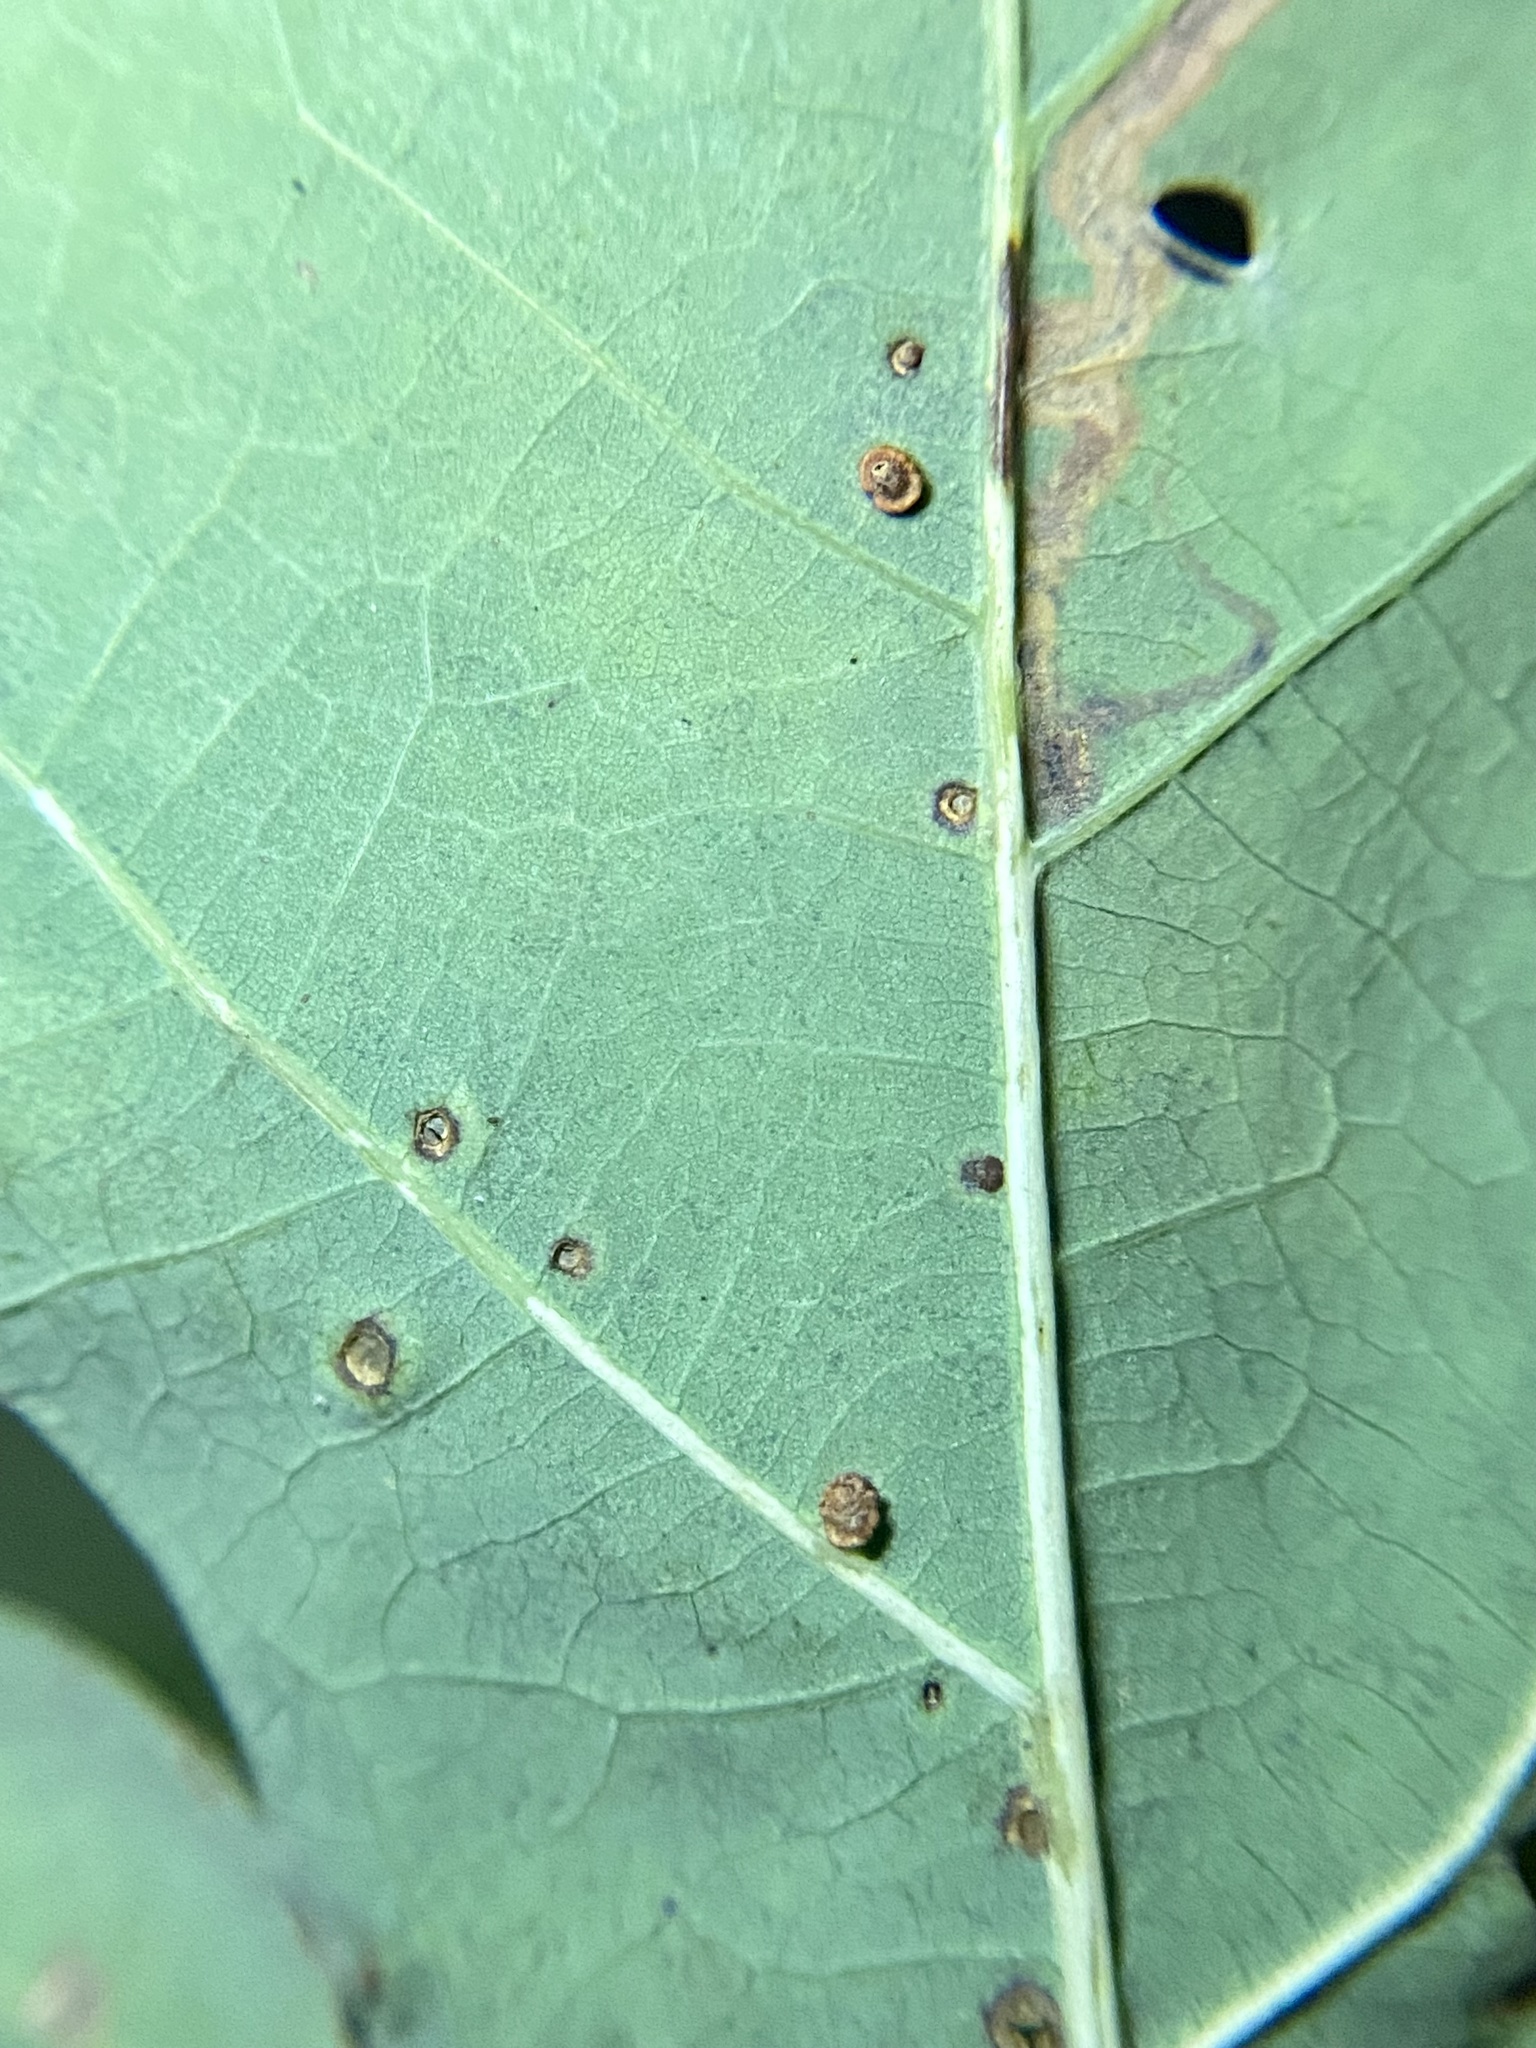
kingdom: Animalia
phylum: Arthropoda
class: Insecta
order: Hymenoptera
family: Cynipidae
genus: Neuroterus
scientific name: Neuroterus
